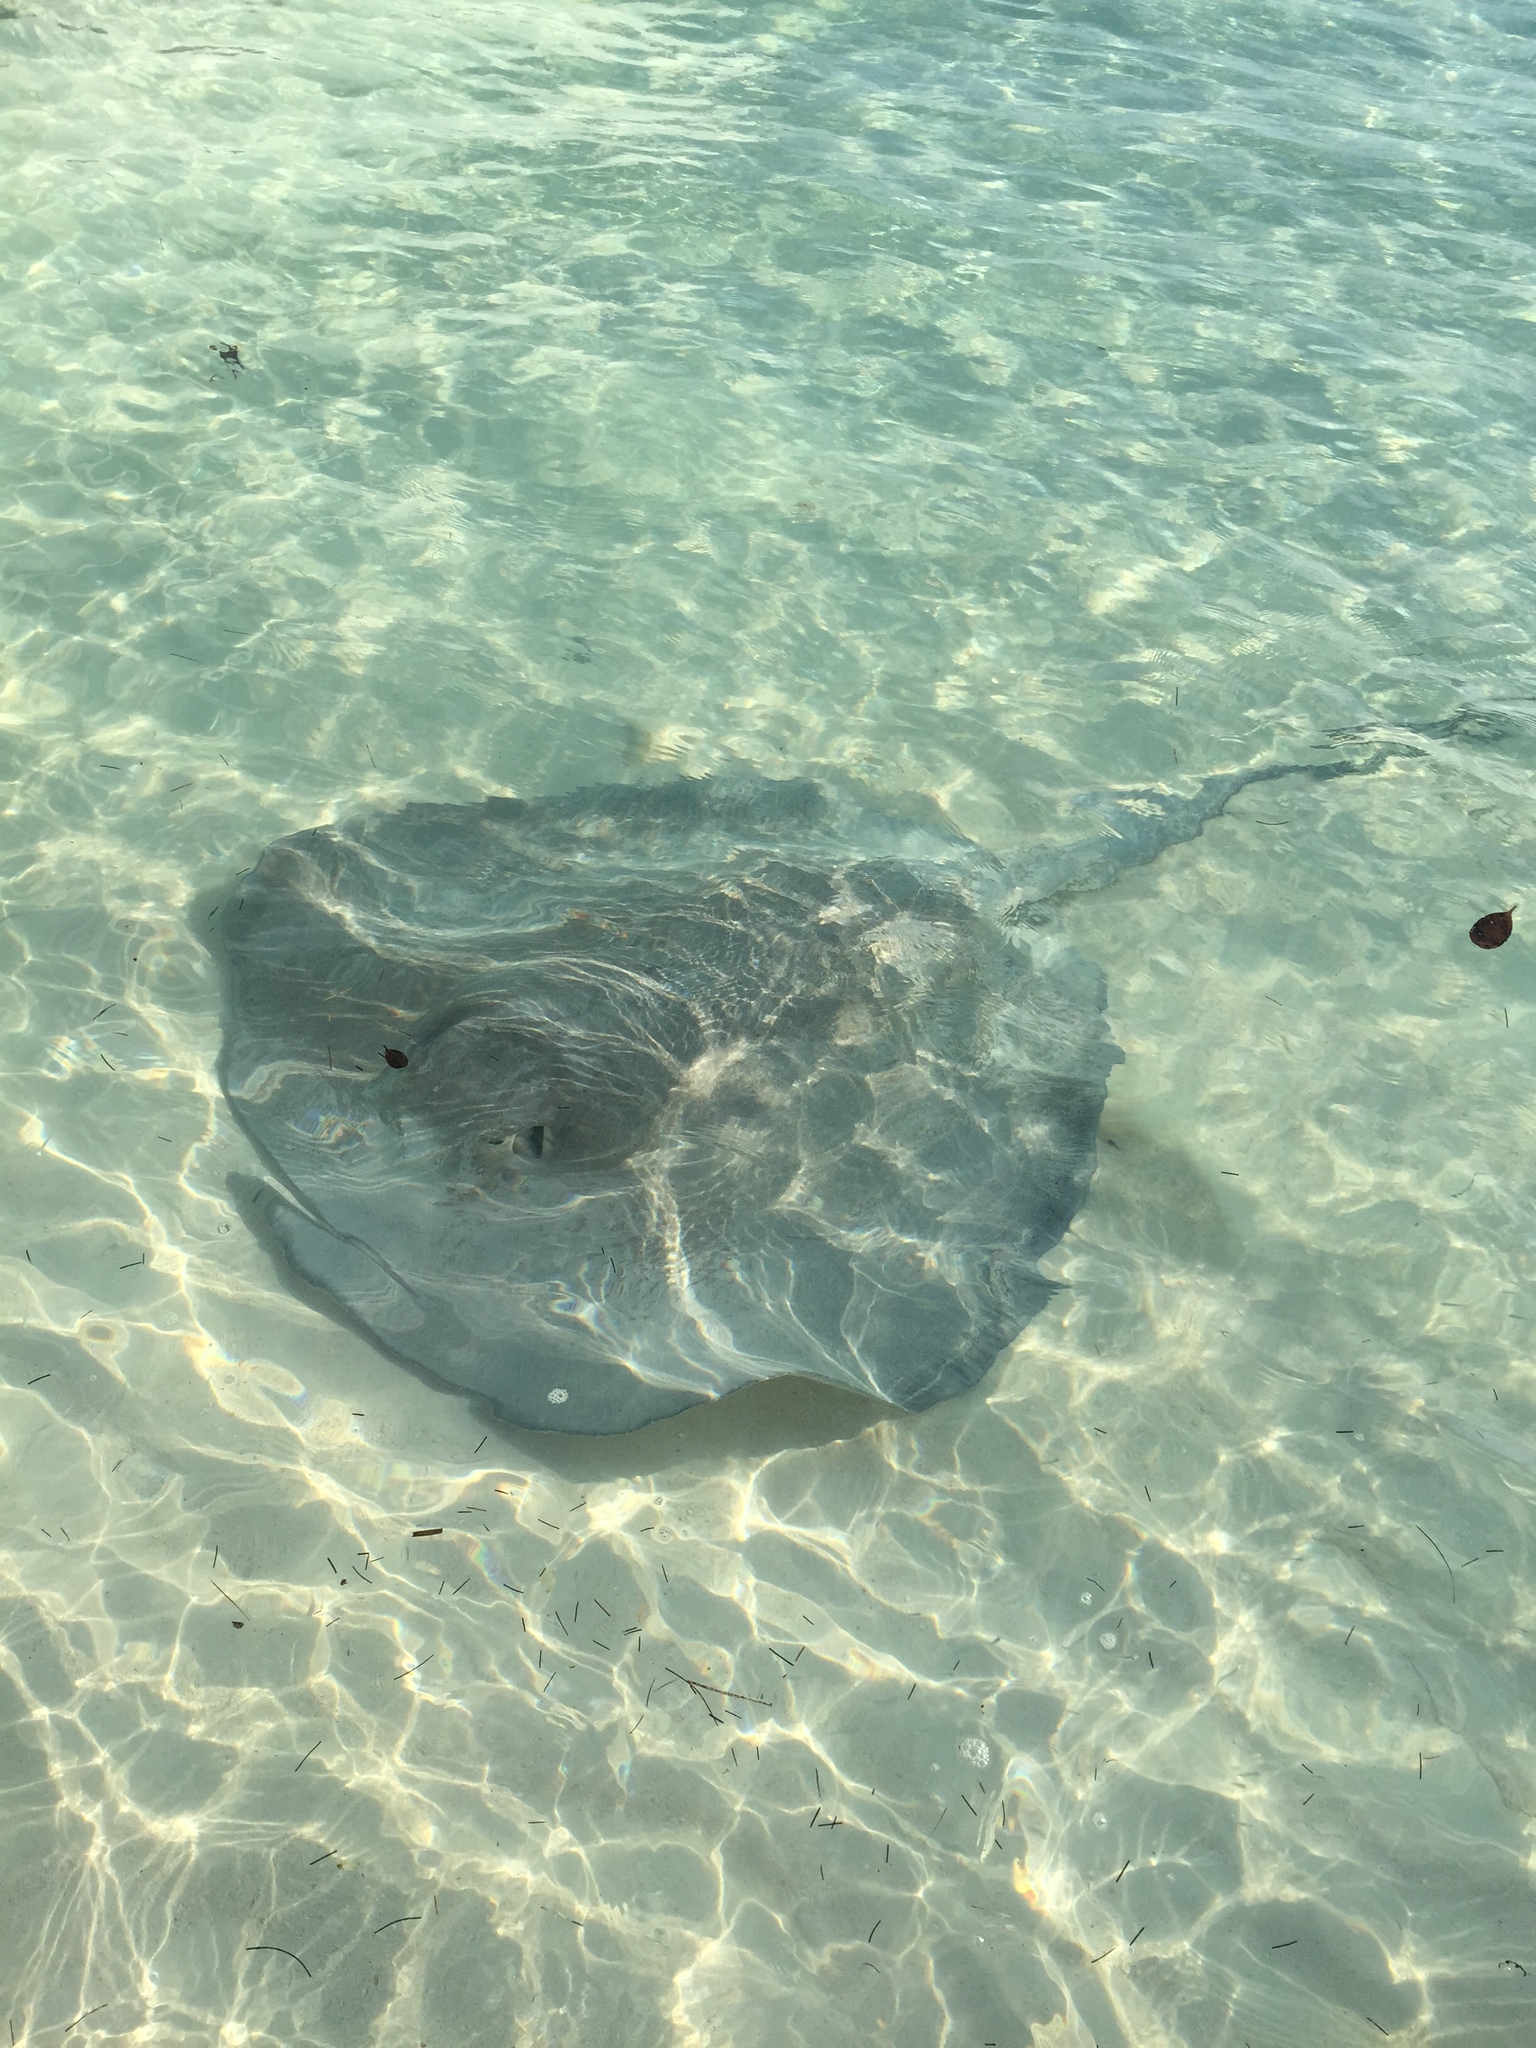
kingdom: Animalia
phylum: Chordata
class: Elasmobranchii
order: Myliobatiformes
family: Potamotrygonidae
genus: Styracura
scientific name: Styracura schmardae
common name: Atlantic chupare
